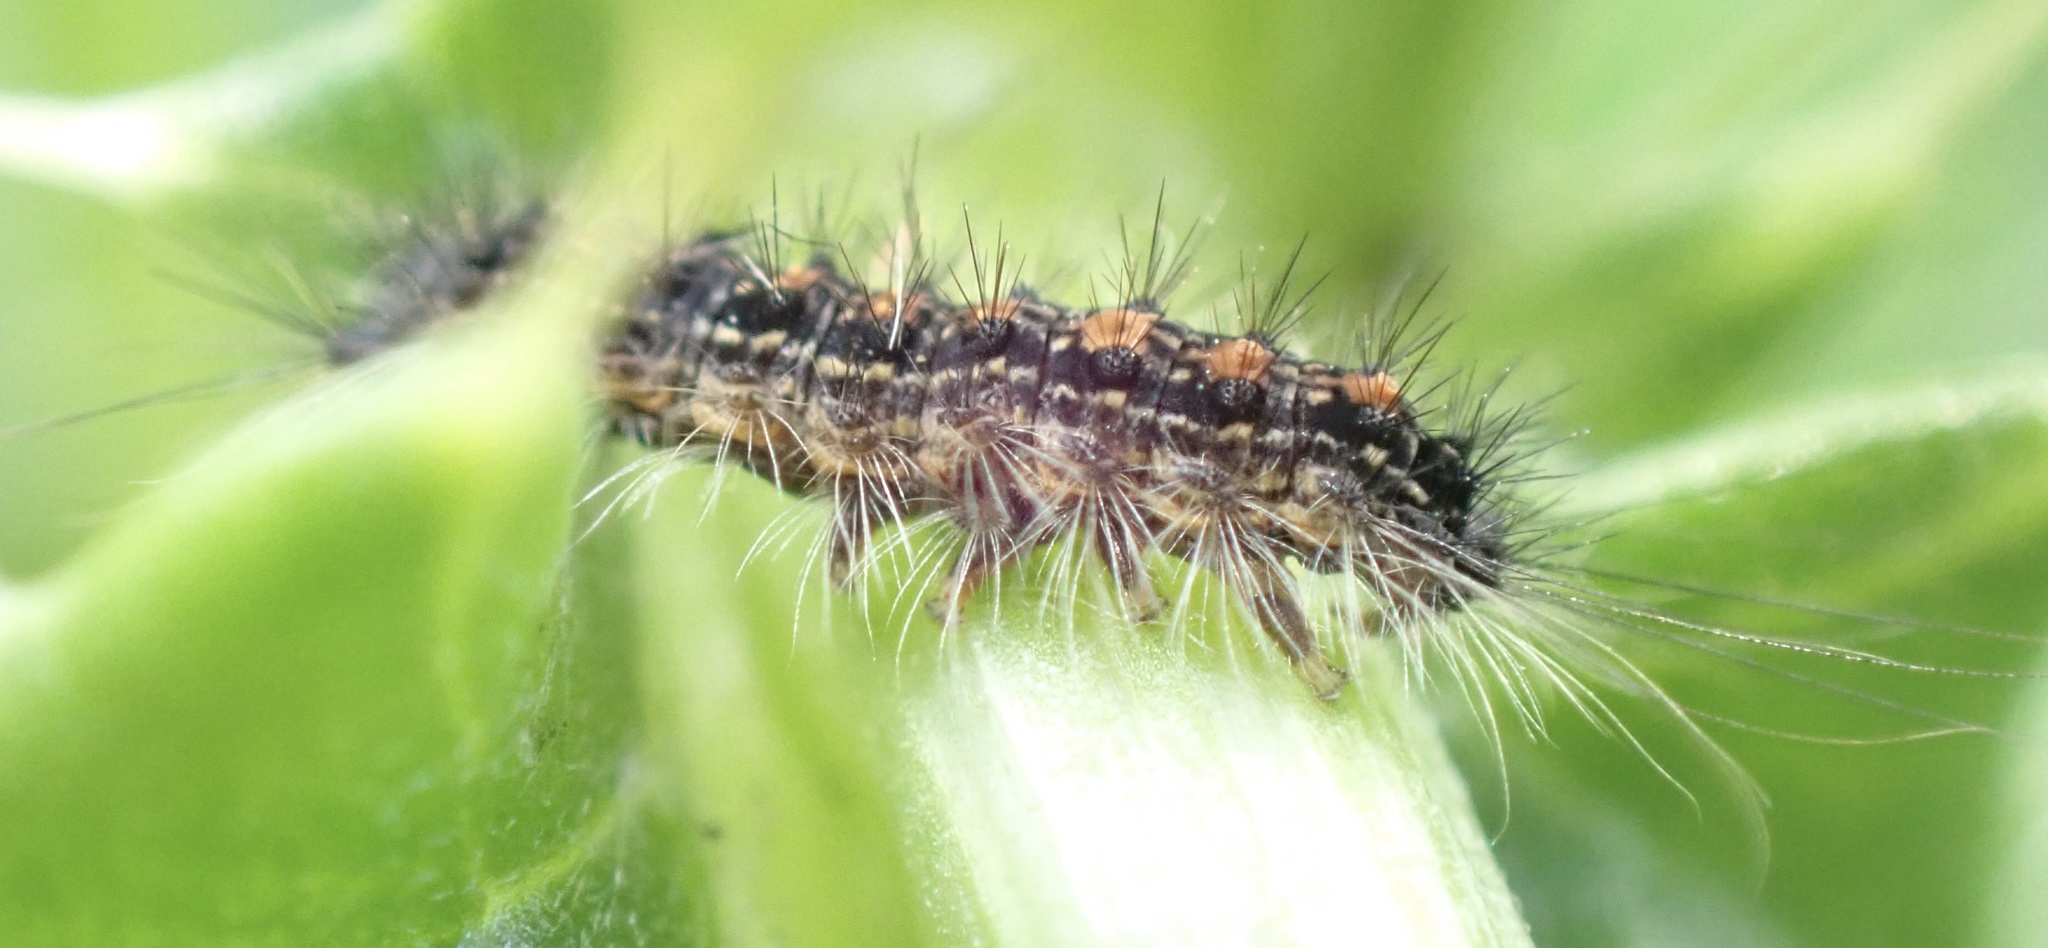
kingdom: Animalia
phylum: Arthropoda
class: Insecta
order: Lepidoptera
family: Erebidae
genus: Lymantria
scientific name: Lymantria dispar
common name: Gypsy moth
